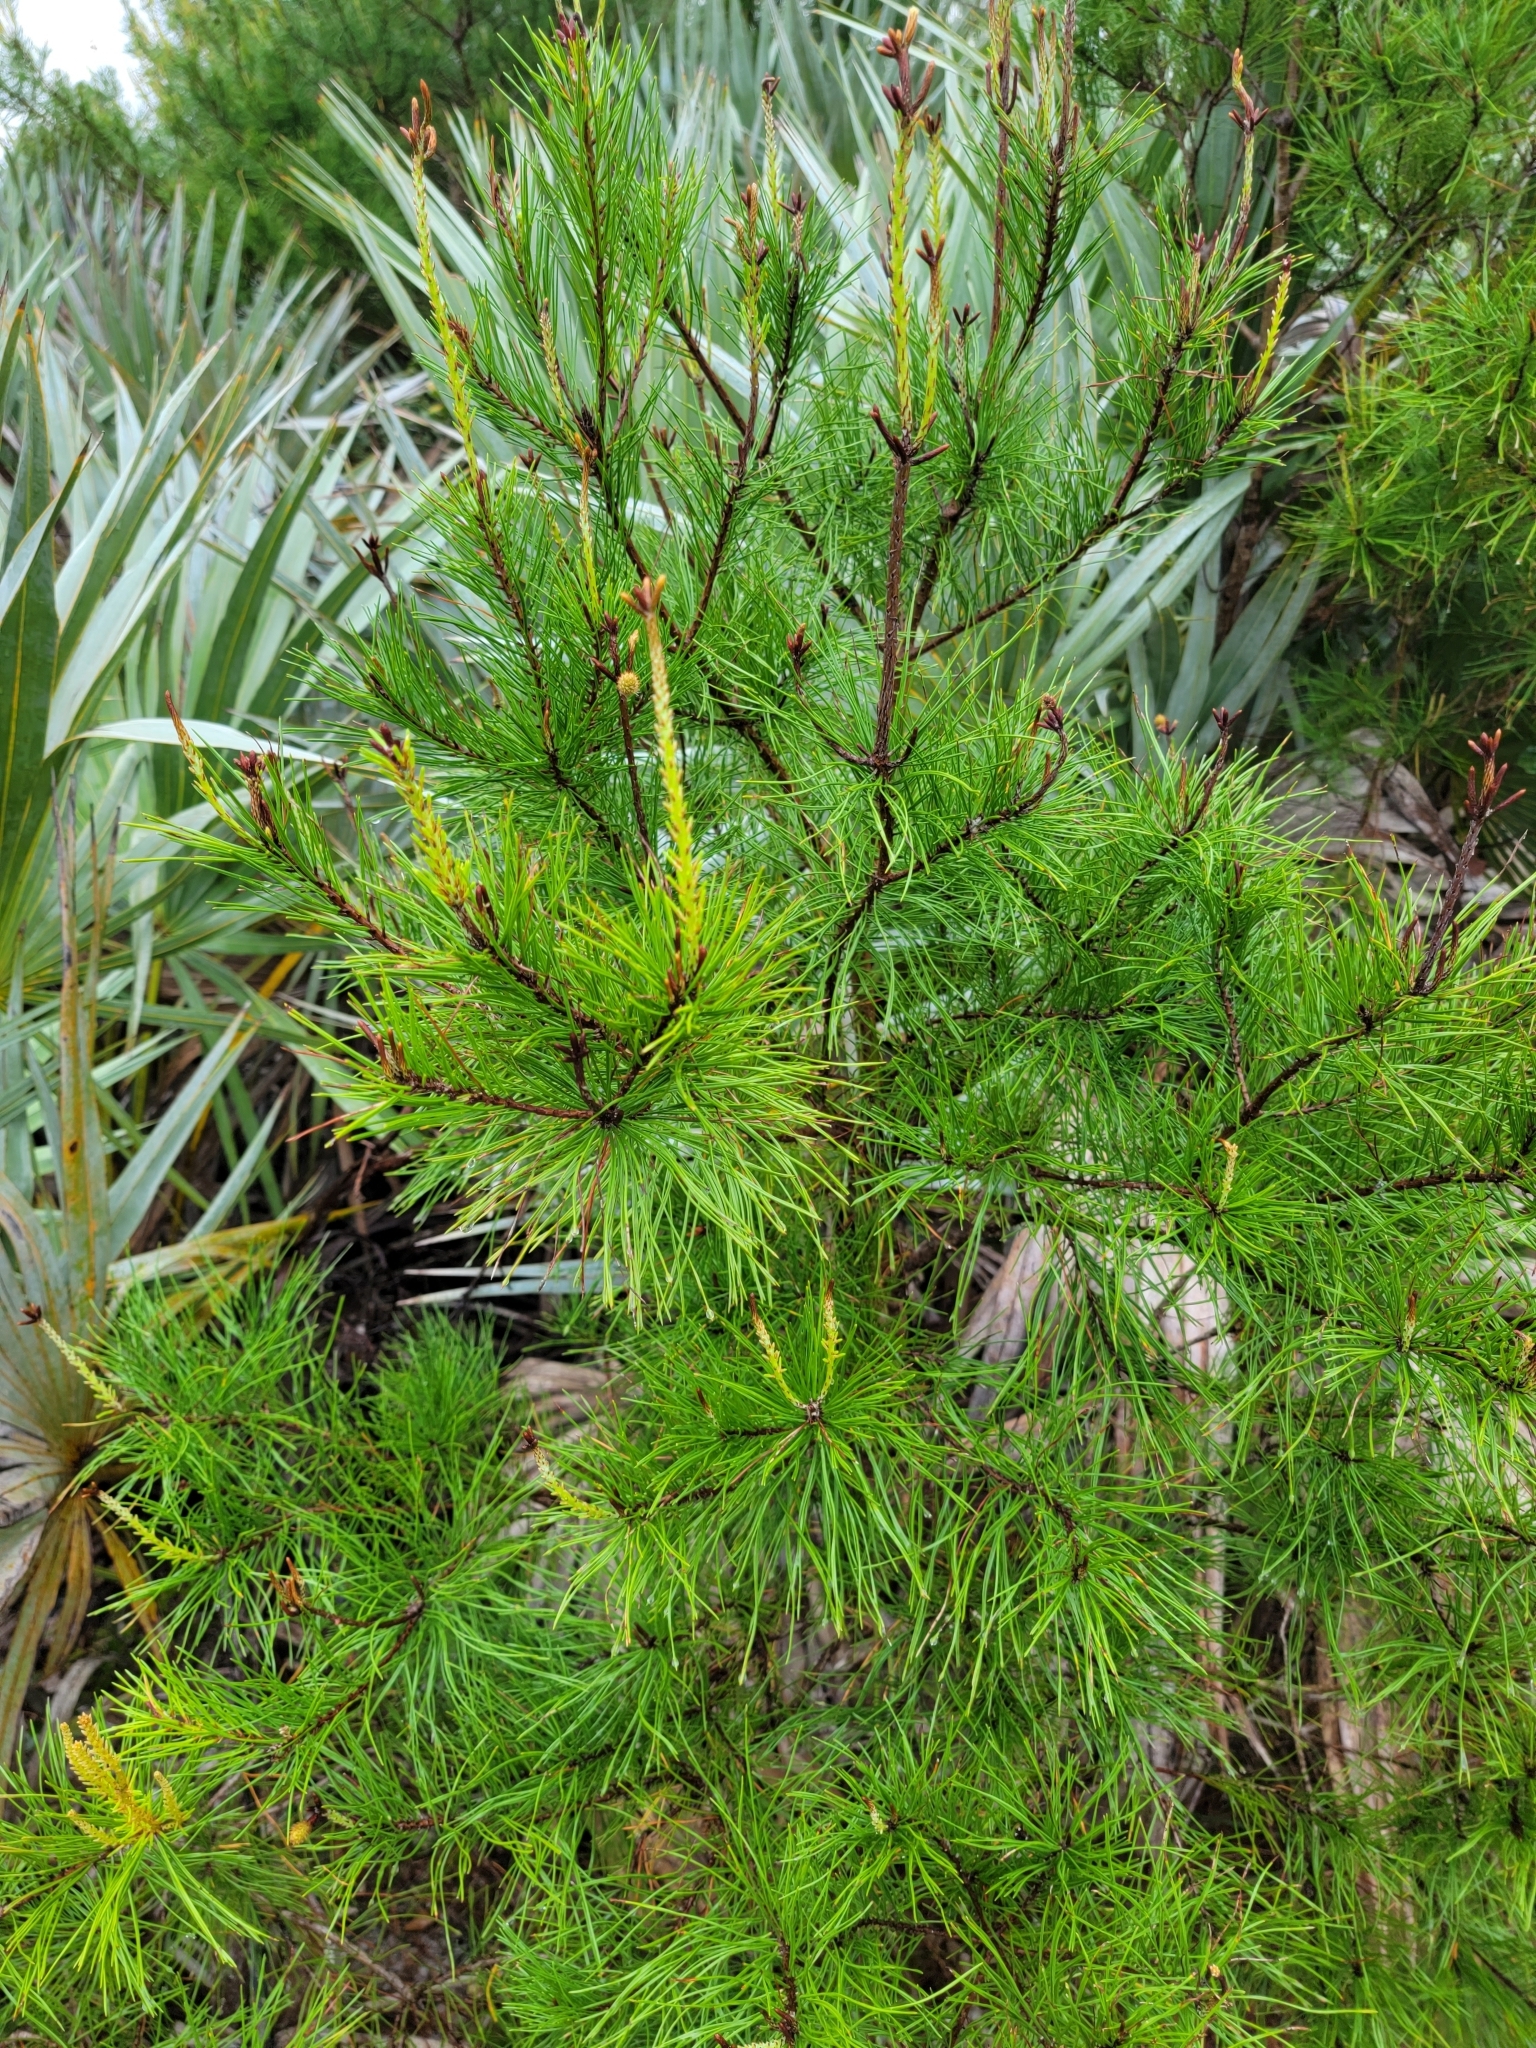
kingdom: Plantae
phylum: Tracheophyta
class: Pinopsida
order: Pinales
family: Pinaceae
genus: Pinus
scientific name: Pinus clausa
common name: Sand pine
